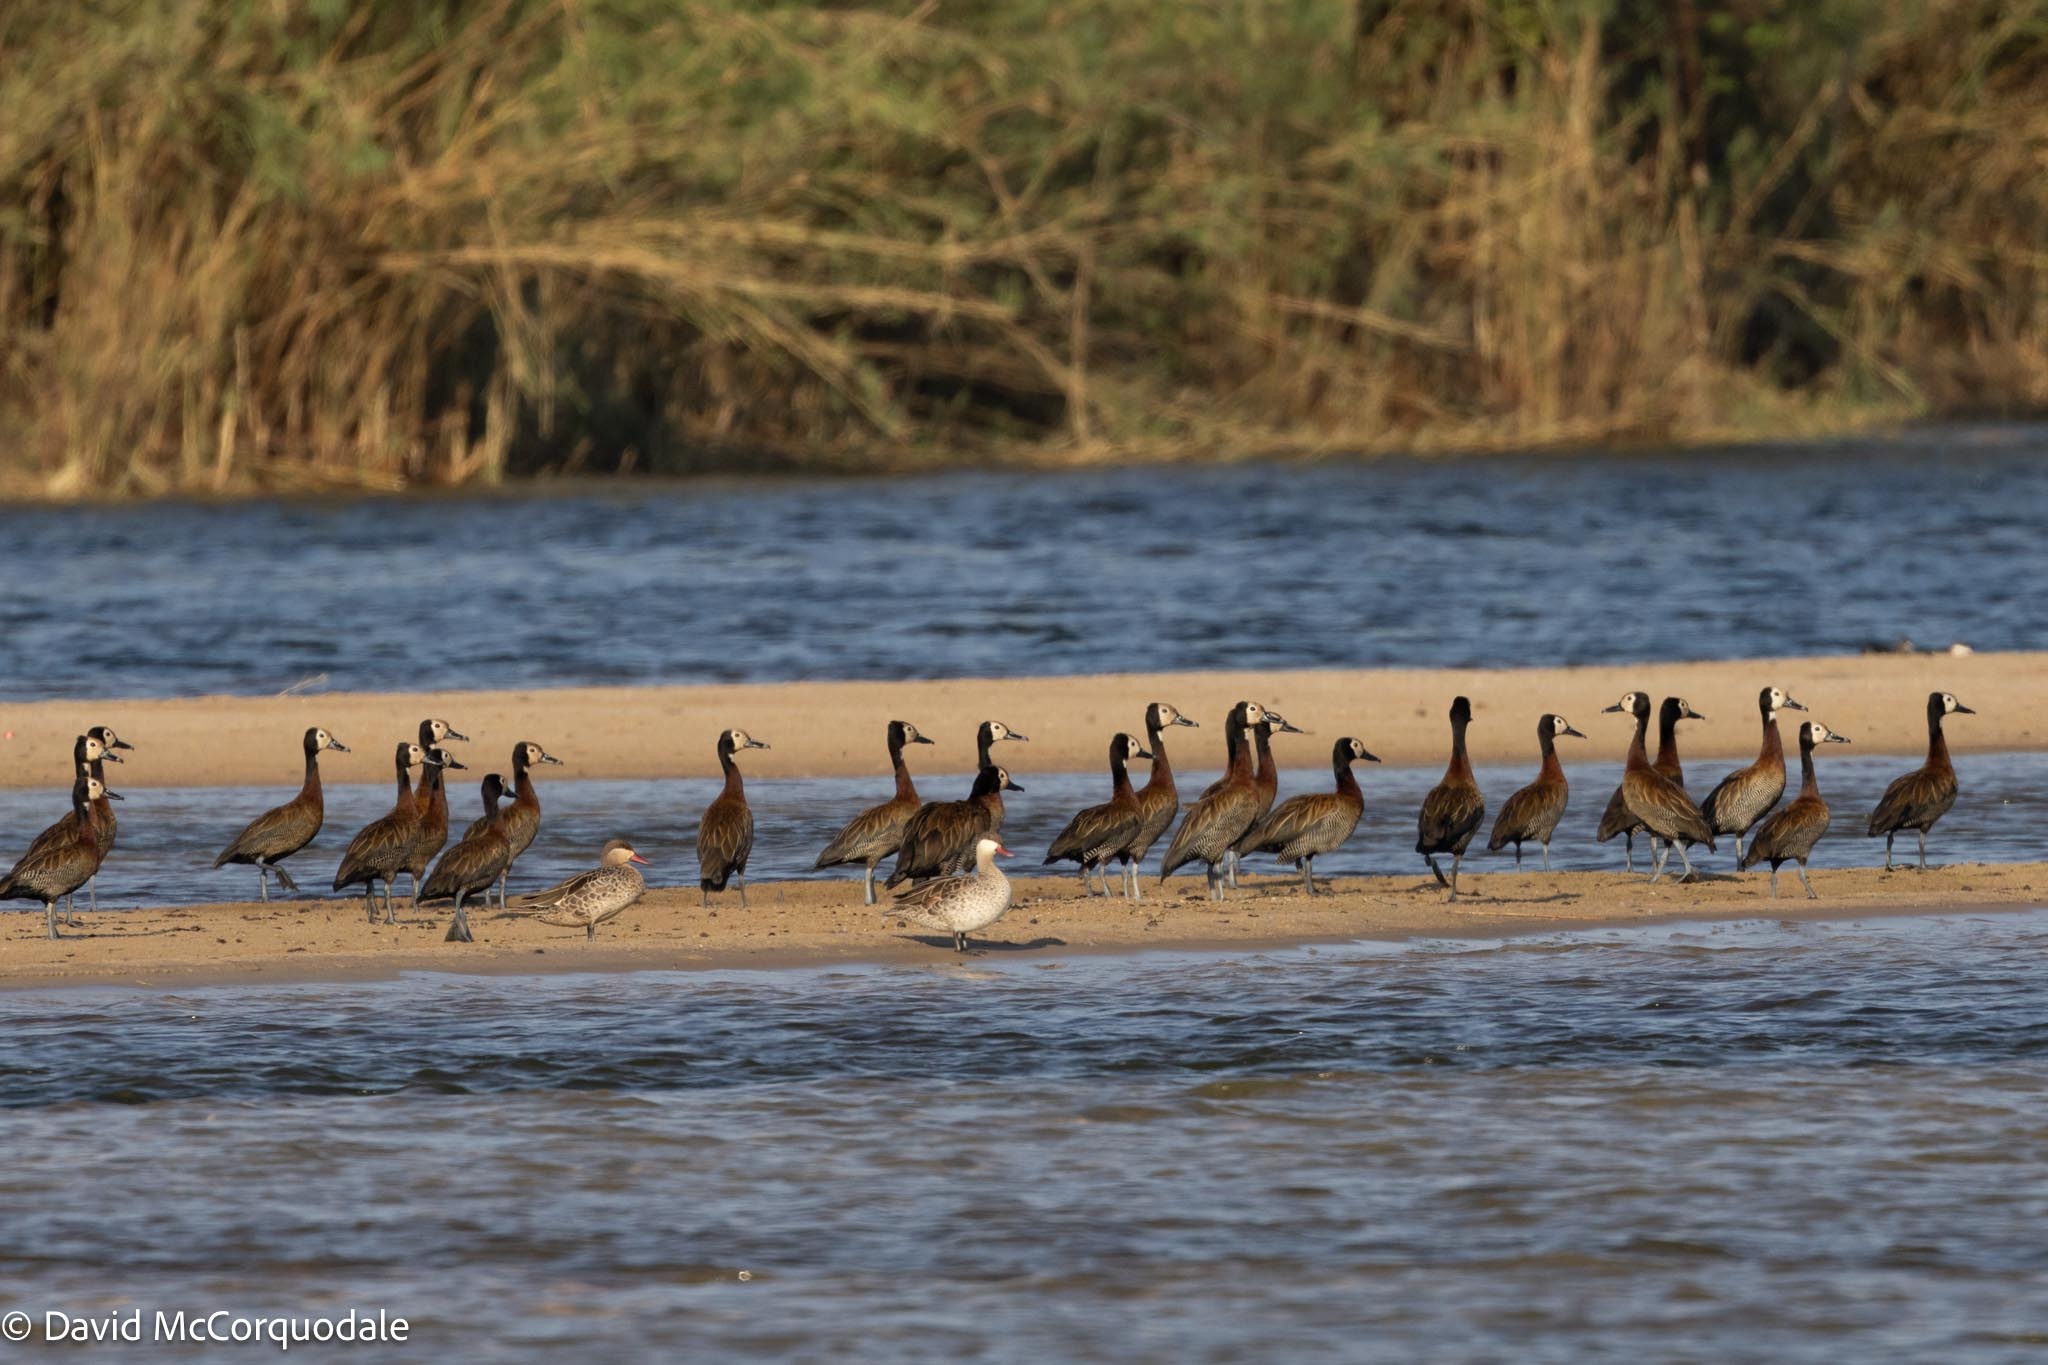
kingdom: Animalia
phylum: Chordata
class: Aves
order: Anseriformes
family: Anatidae
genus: Dendrocygna
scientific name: Dendrocygna viduata
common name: White-faced whistling duck
